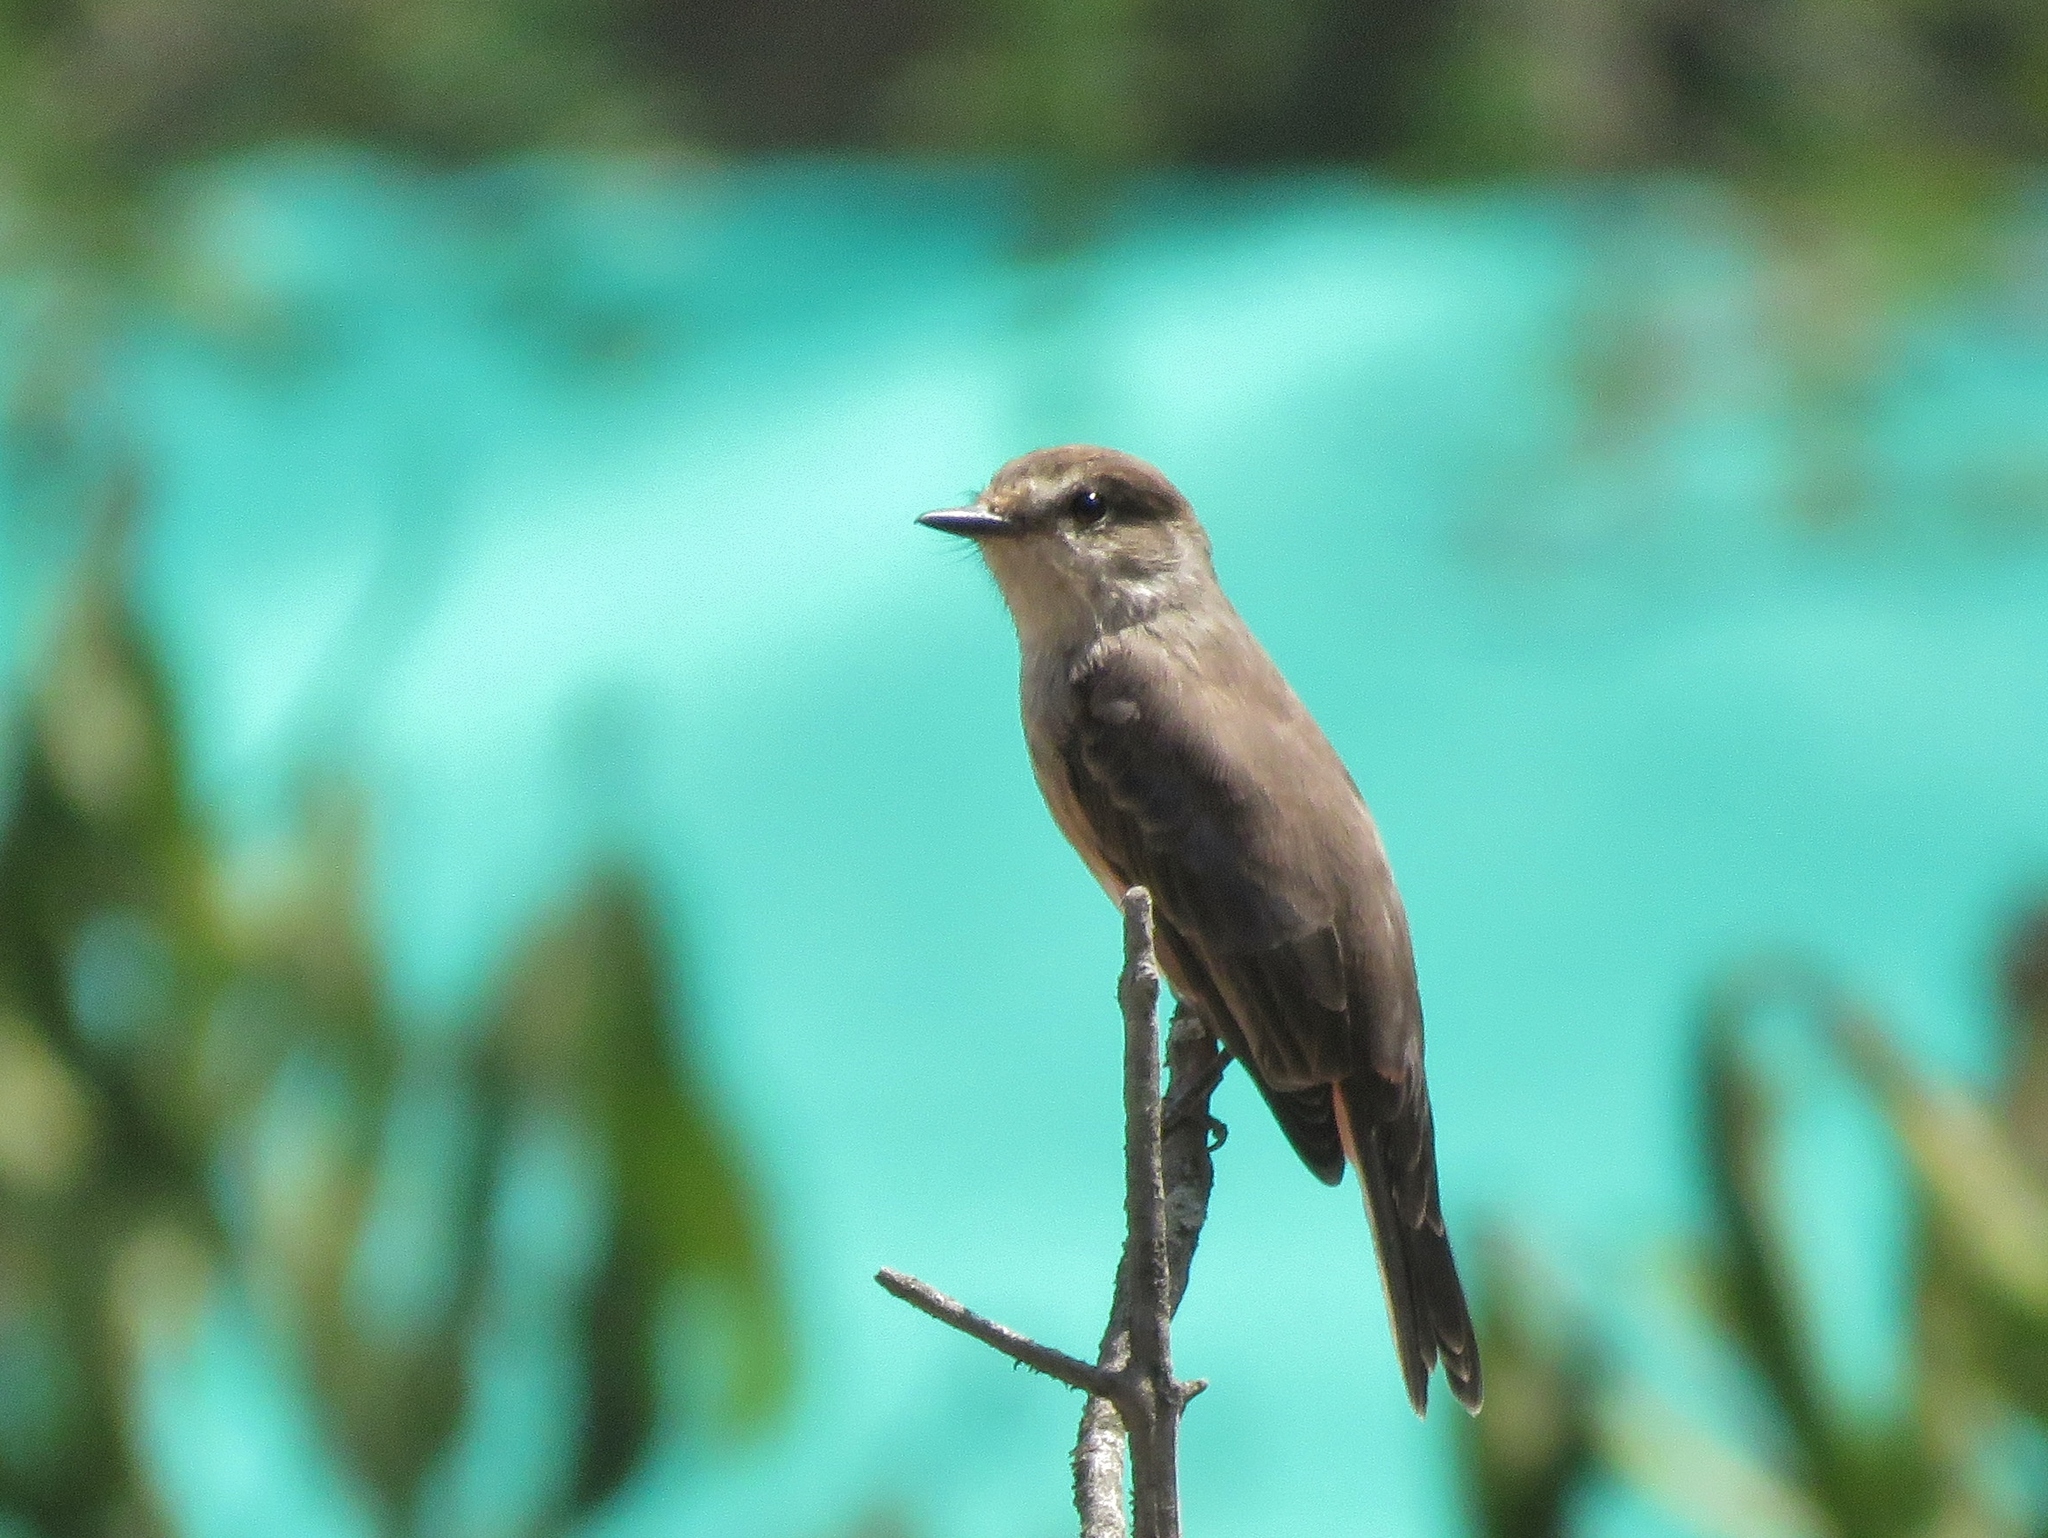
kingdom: Animalia
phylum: Chordata
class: Aves
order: Passeriformes
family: Tyrannidae
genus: Pyrocephalus
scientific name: Pyrocephalus rubinus
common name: Vermilion flycatcher
